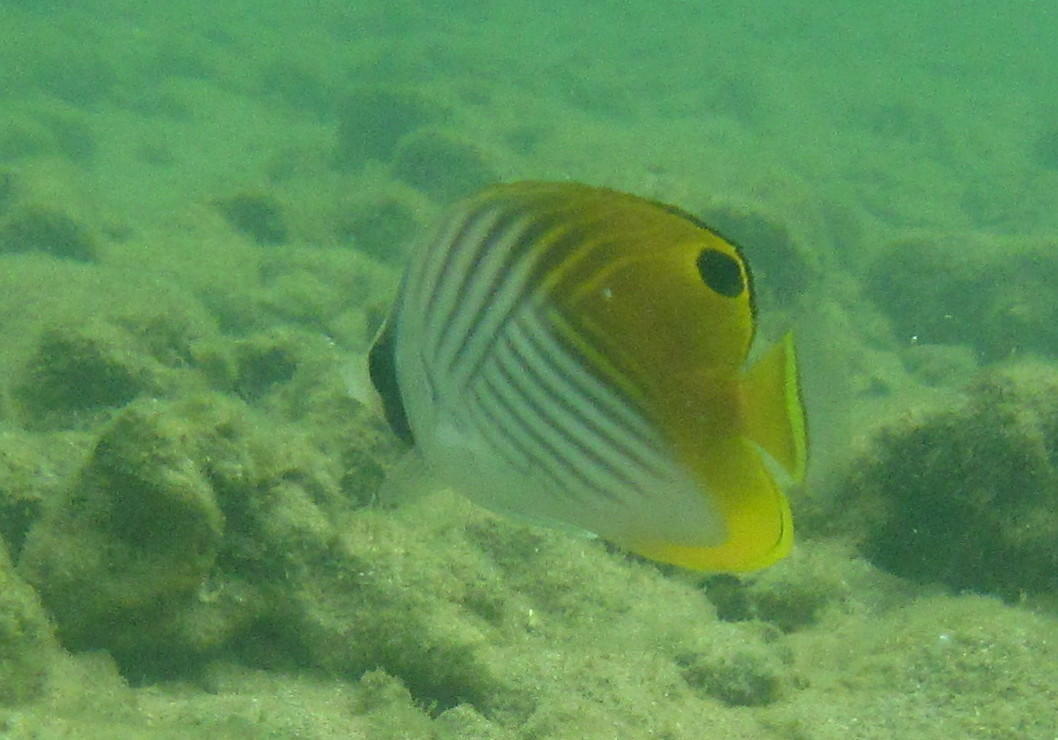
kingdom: Animalia
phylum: Chordata
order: Perciformes
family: Chaetodontidae
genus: Chaetodon
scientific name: Chaetodon auriga
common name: Threadfin butterflyfish
